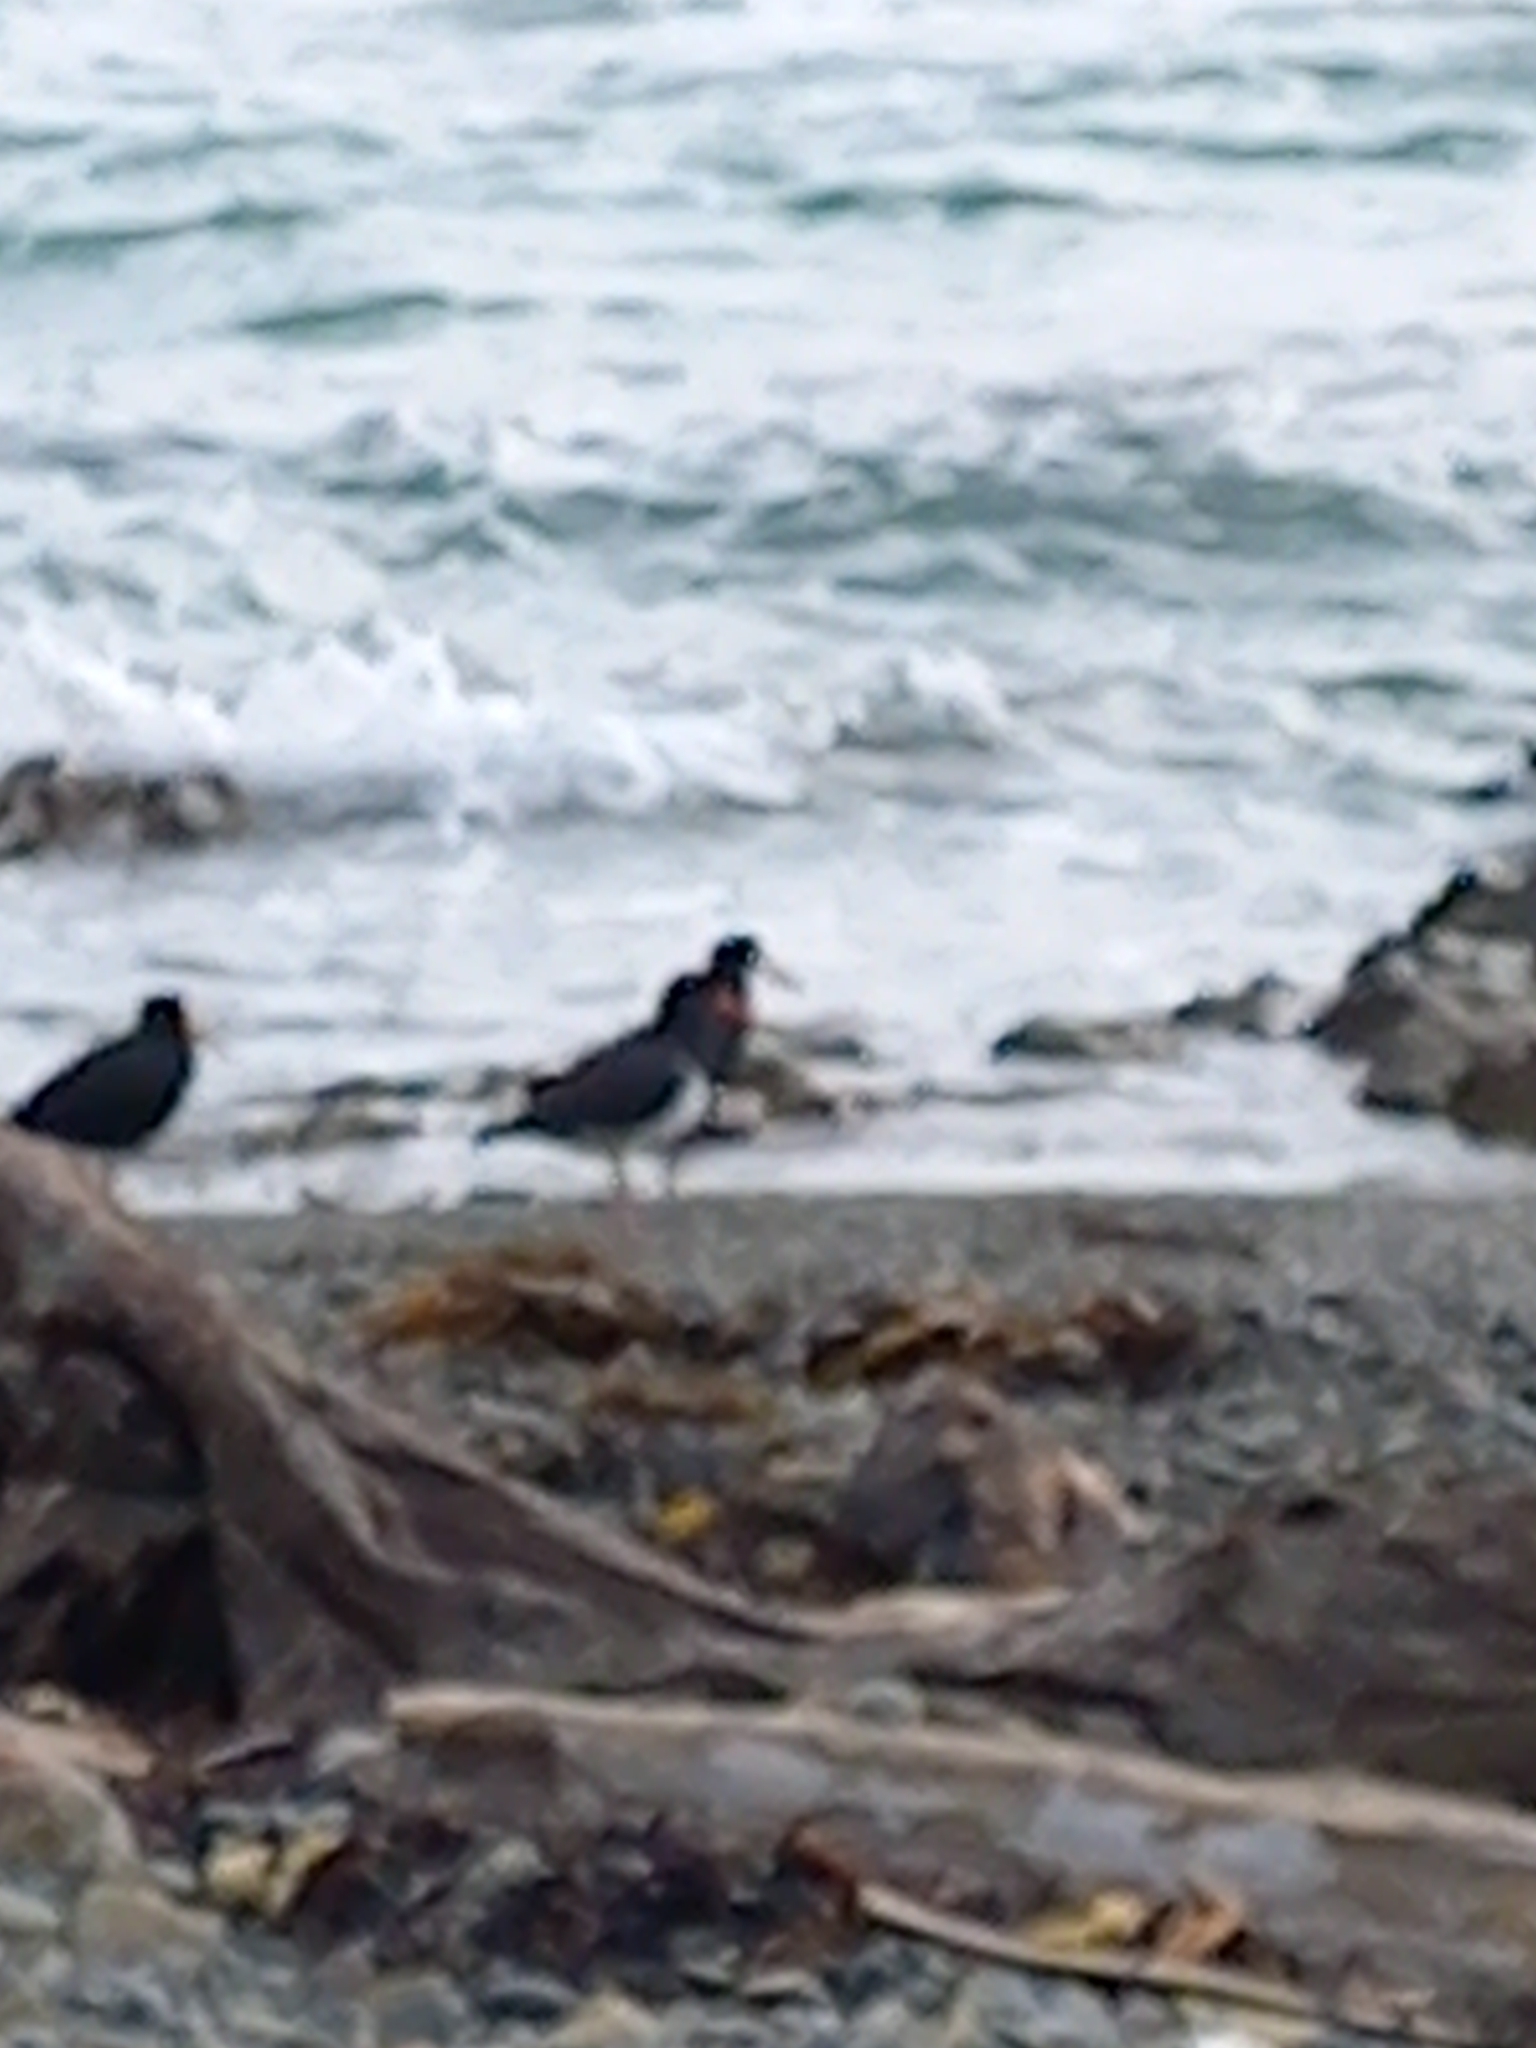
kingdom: Animalia
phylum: Chordata
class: Aves
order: Charadriiformes
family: Haematopodidae
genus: Haematopus
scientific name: Haematopus finschi
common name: South island oystercatcher
